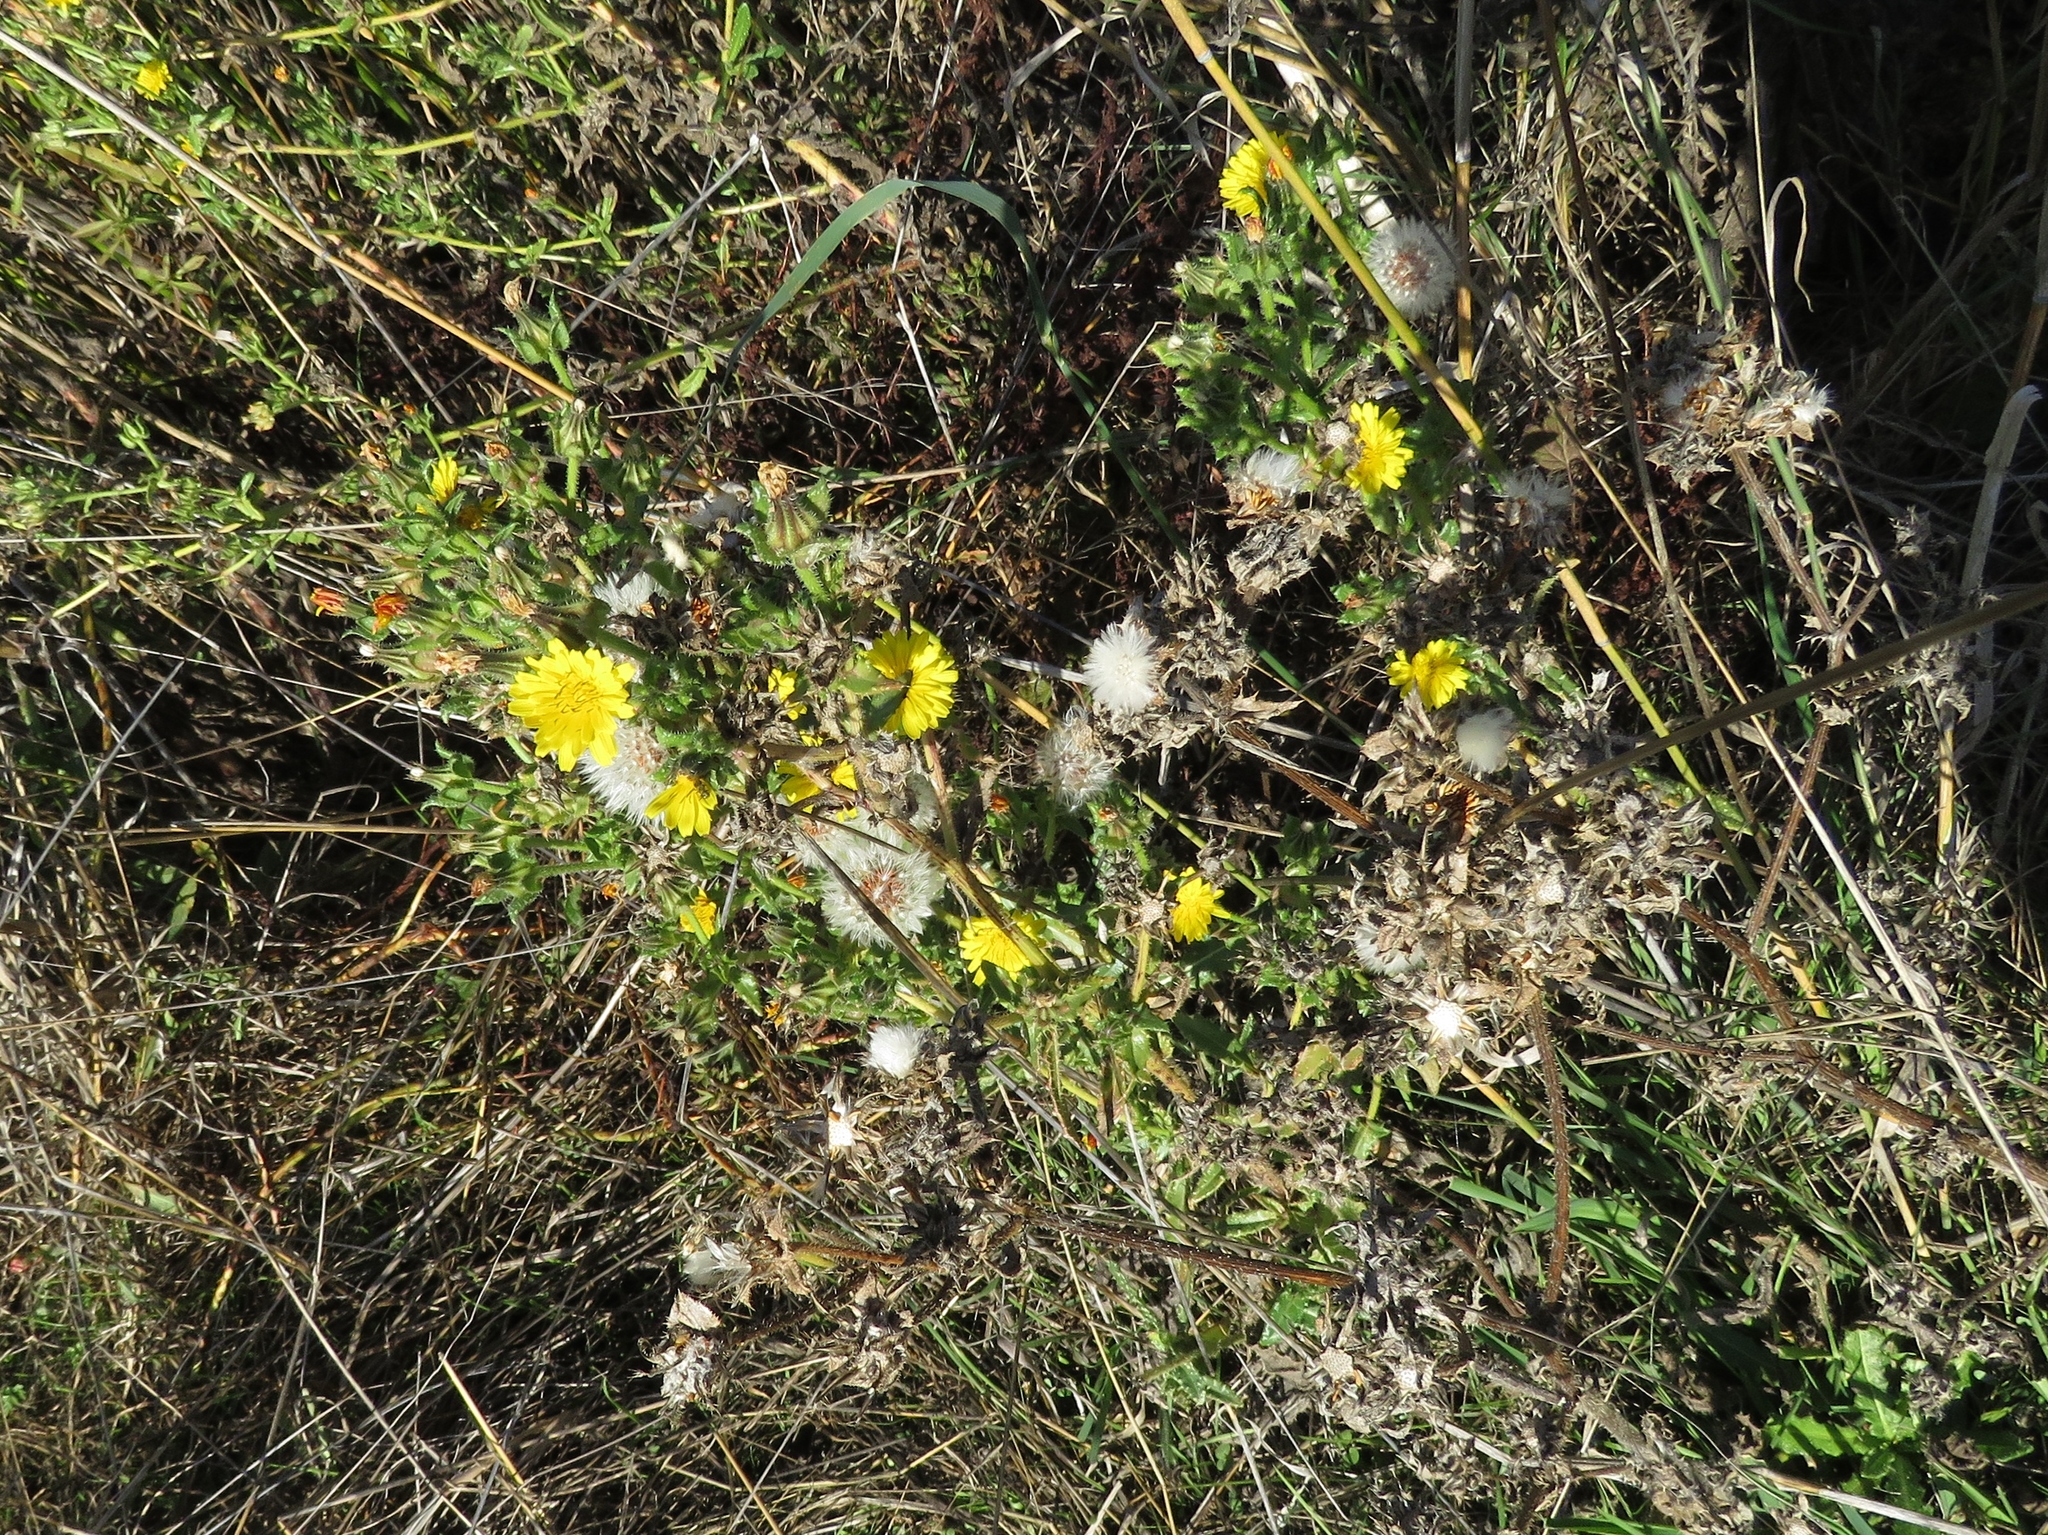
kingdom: Plantae
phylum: Tracheophyta
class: Magnoliopsida
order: Asterales
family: Asteraceae
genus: Helminthotheca
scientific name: Helminthotheca echioides
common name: Ox-tongue
